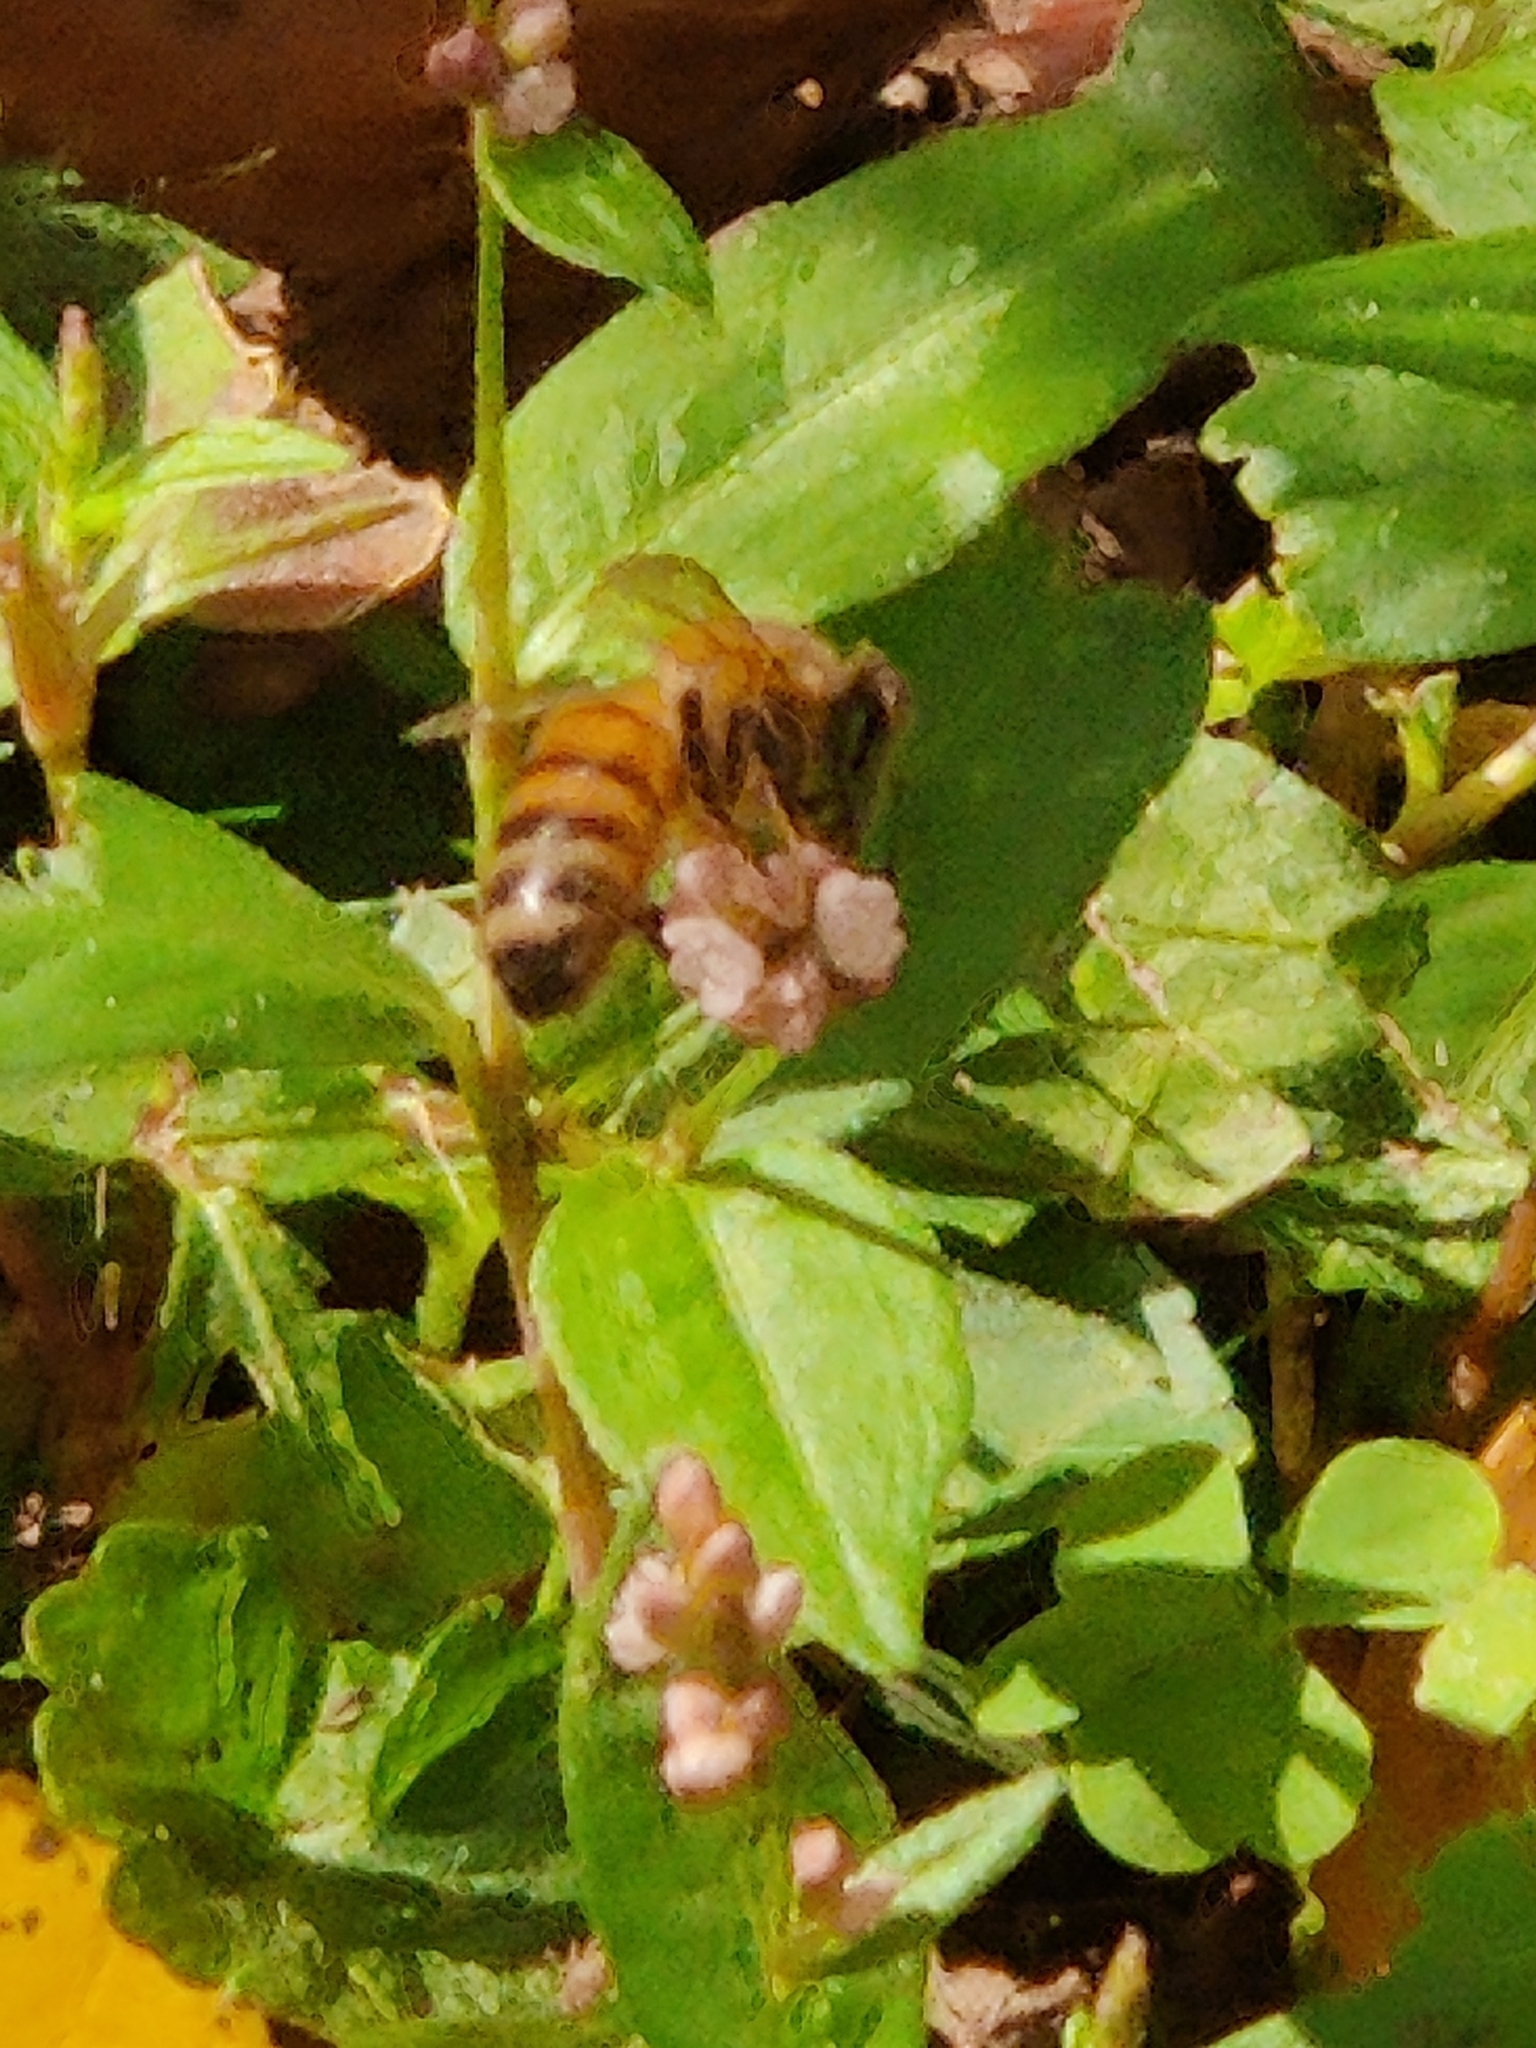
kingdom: Animalia
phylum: Arthropoda
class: Insecta
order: Hymenoptera
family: Apidae
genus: Apis
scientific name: Apis mellifera
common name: Honey bee
